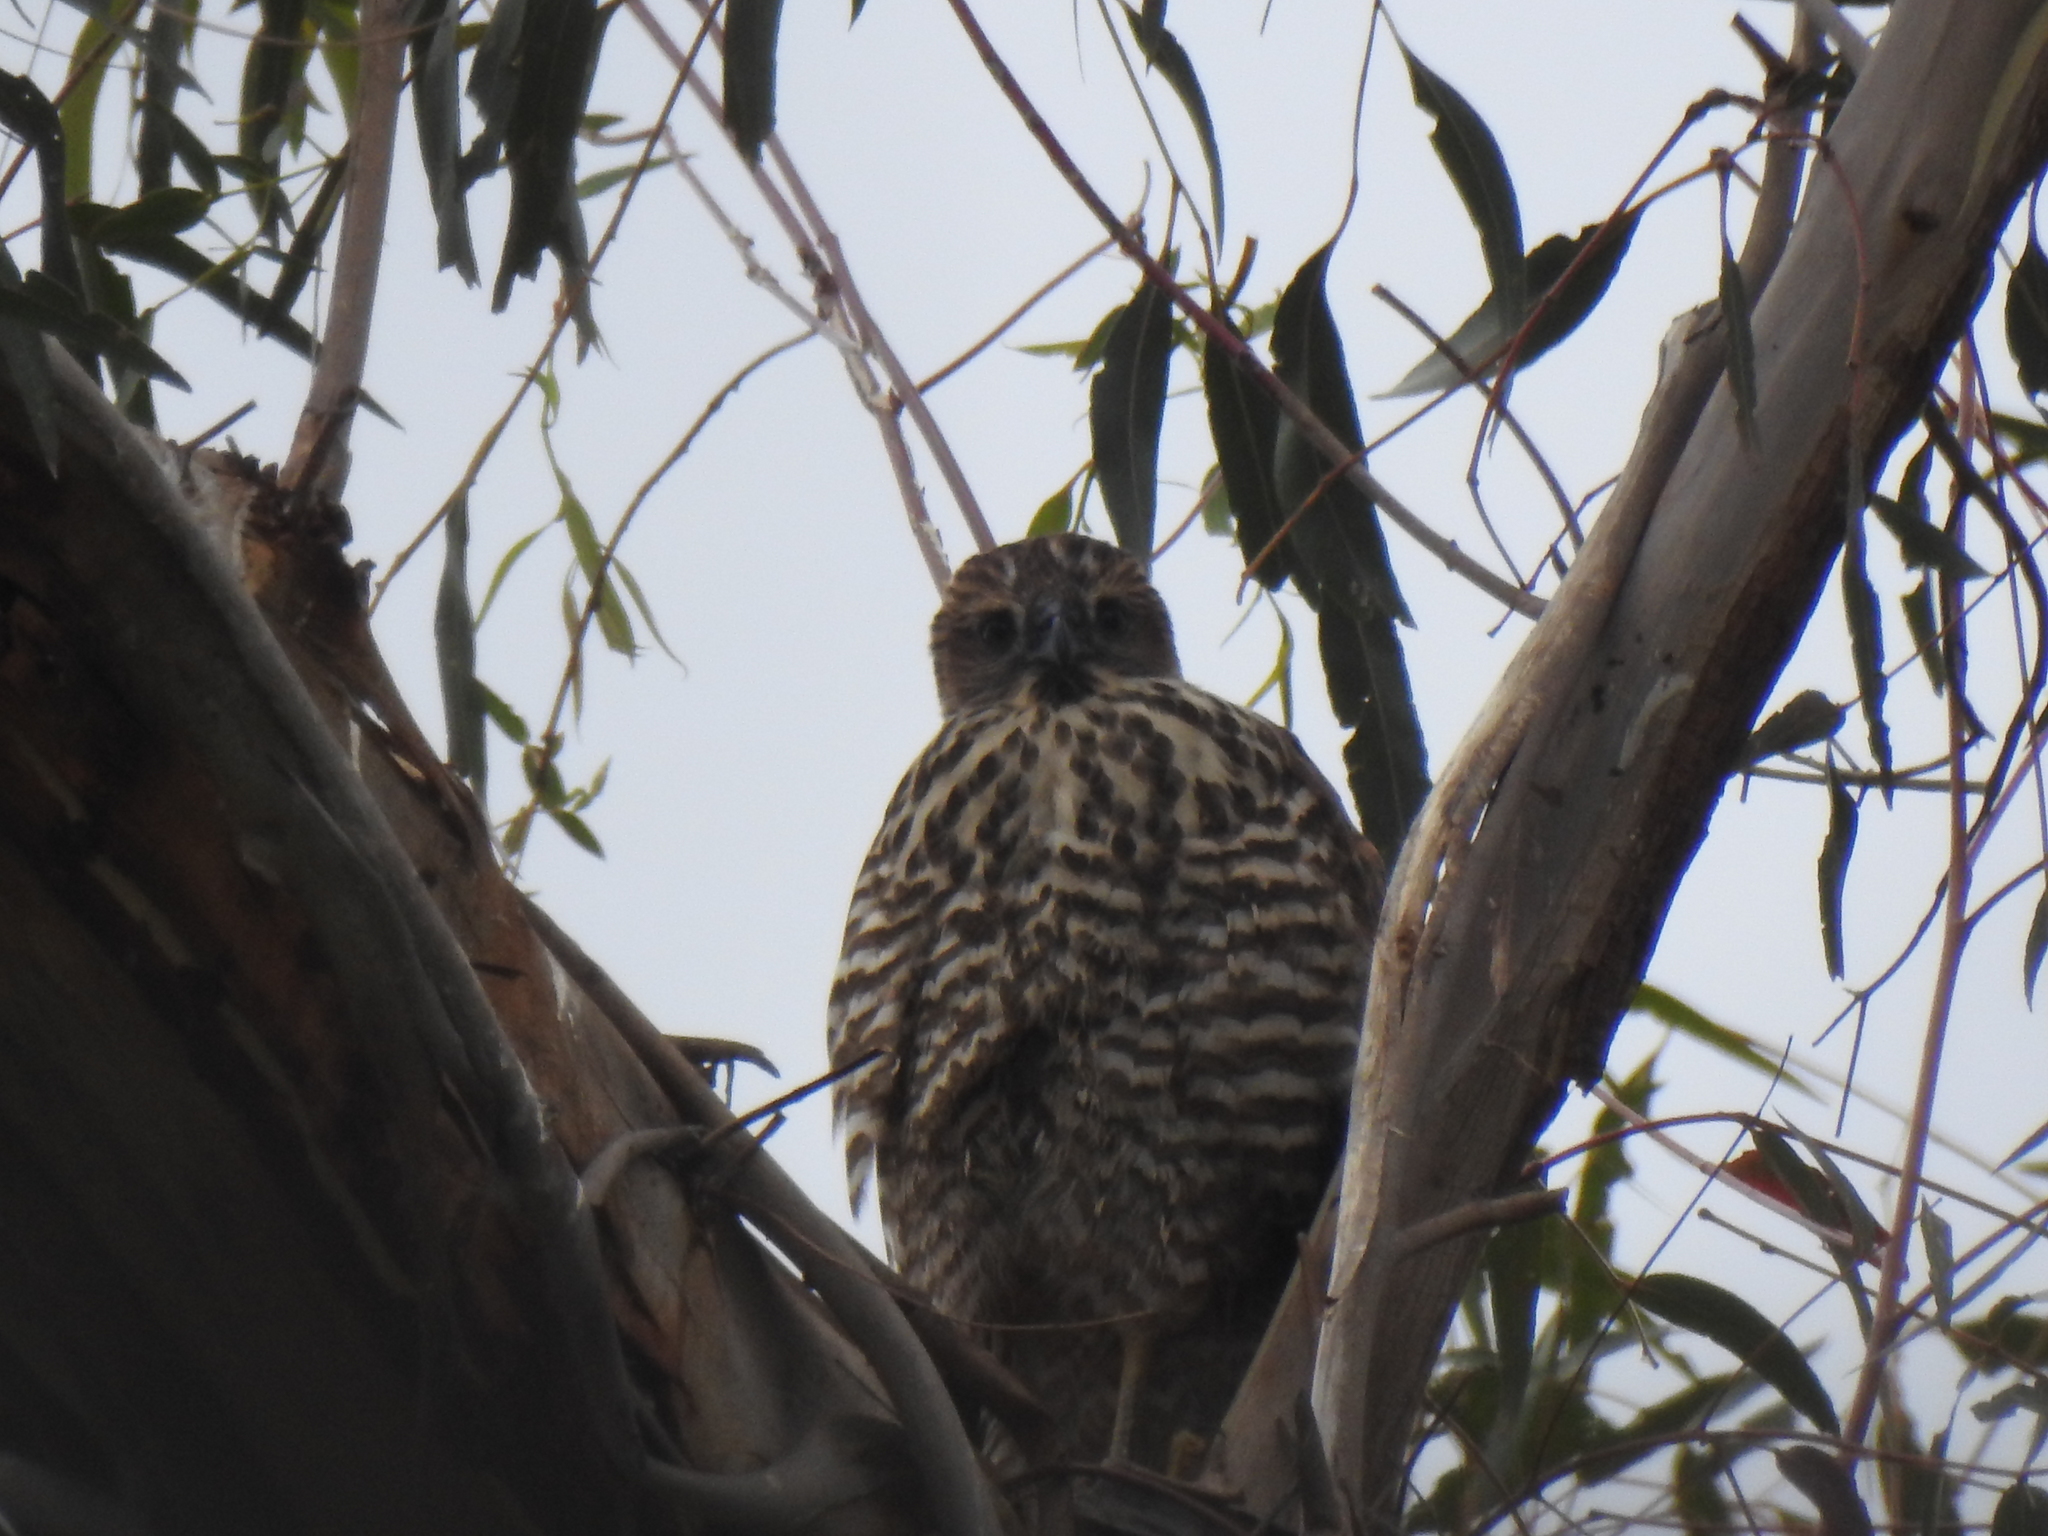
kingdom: Animalia
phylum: Chordata
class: Aves
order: Accipitriformes
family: Accipitridae
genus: Accipiter
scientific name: Accipiter fasciatus
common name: Brown goshawk
